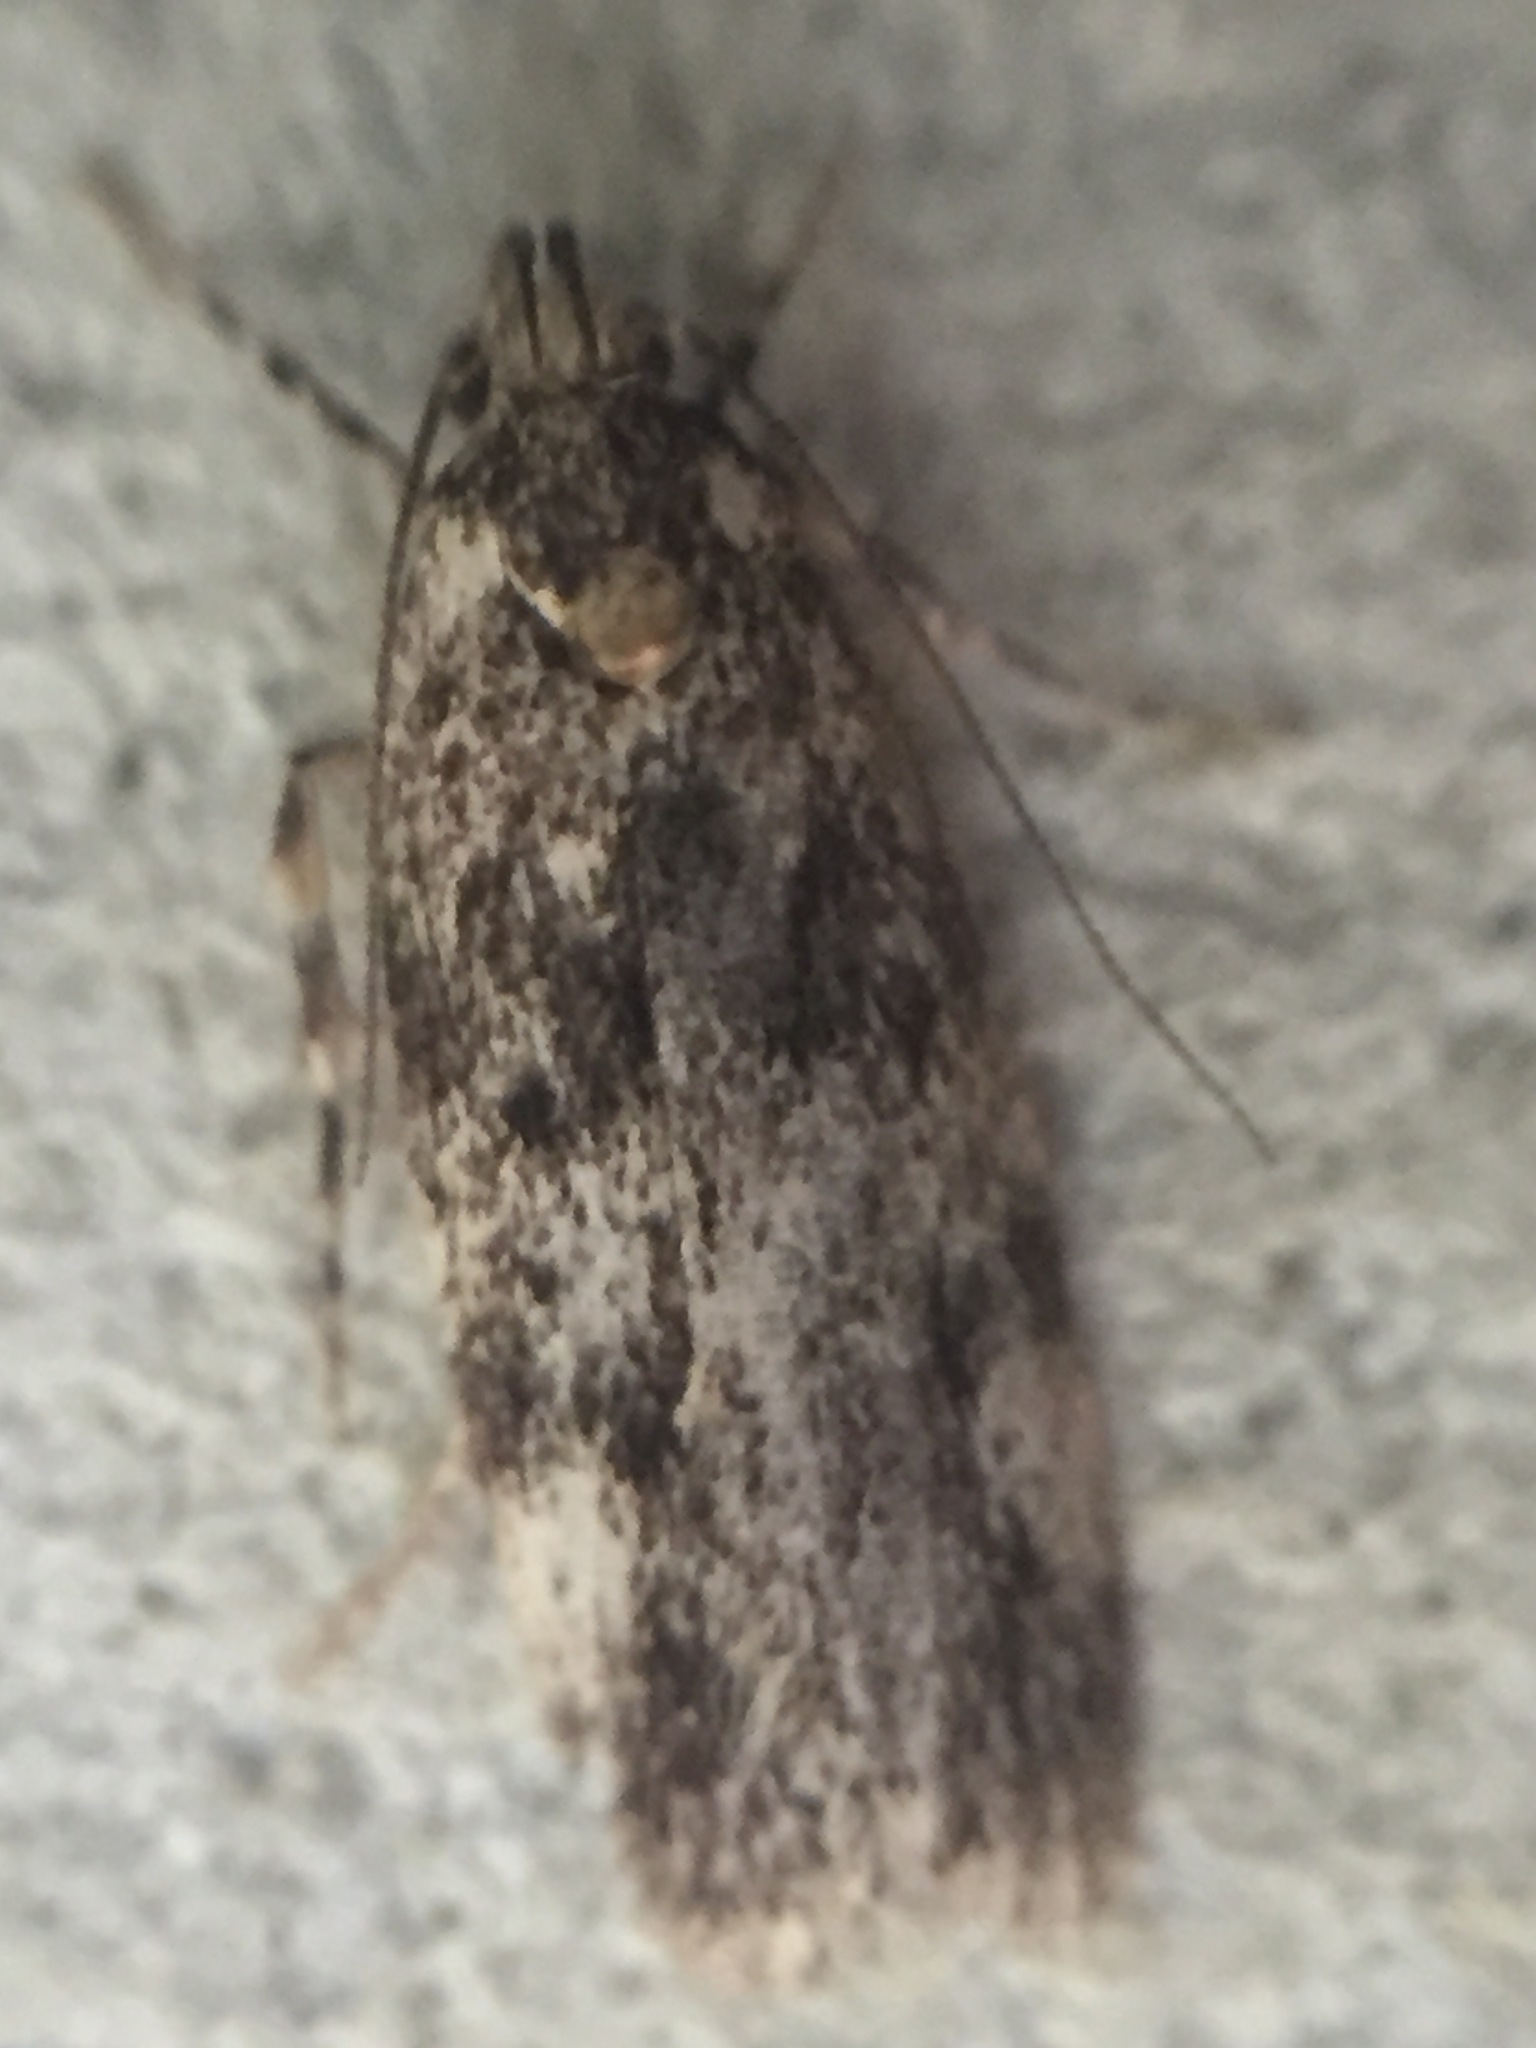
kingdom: Animalia
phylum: Arthropoda
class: Insecta
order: Lepidoptera
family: Oecophoridae
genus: Barea
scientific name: Barea codrella
